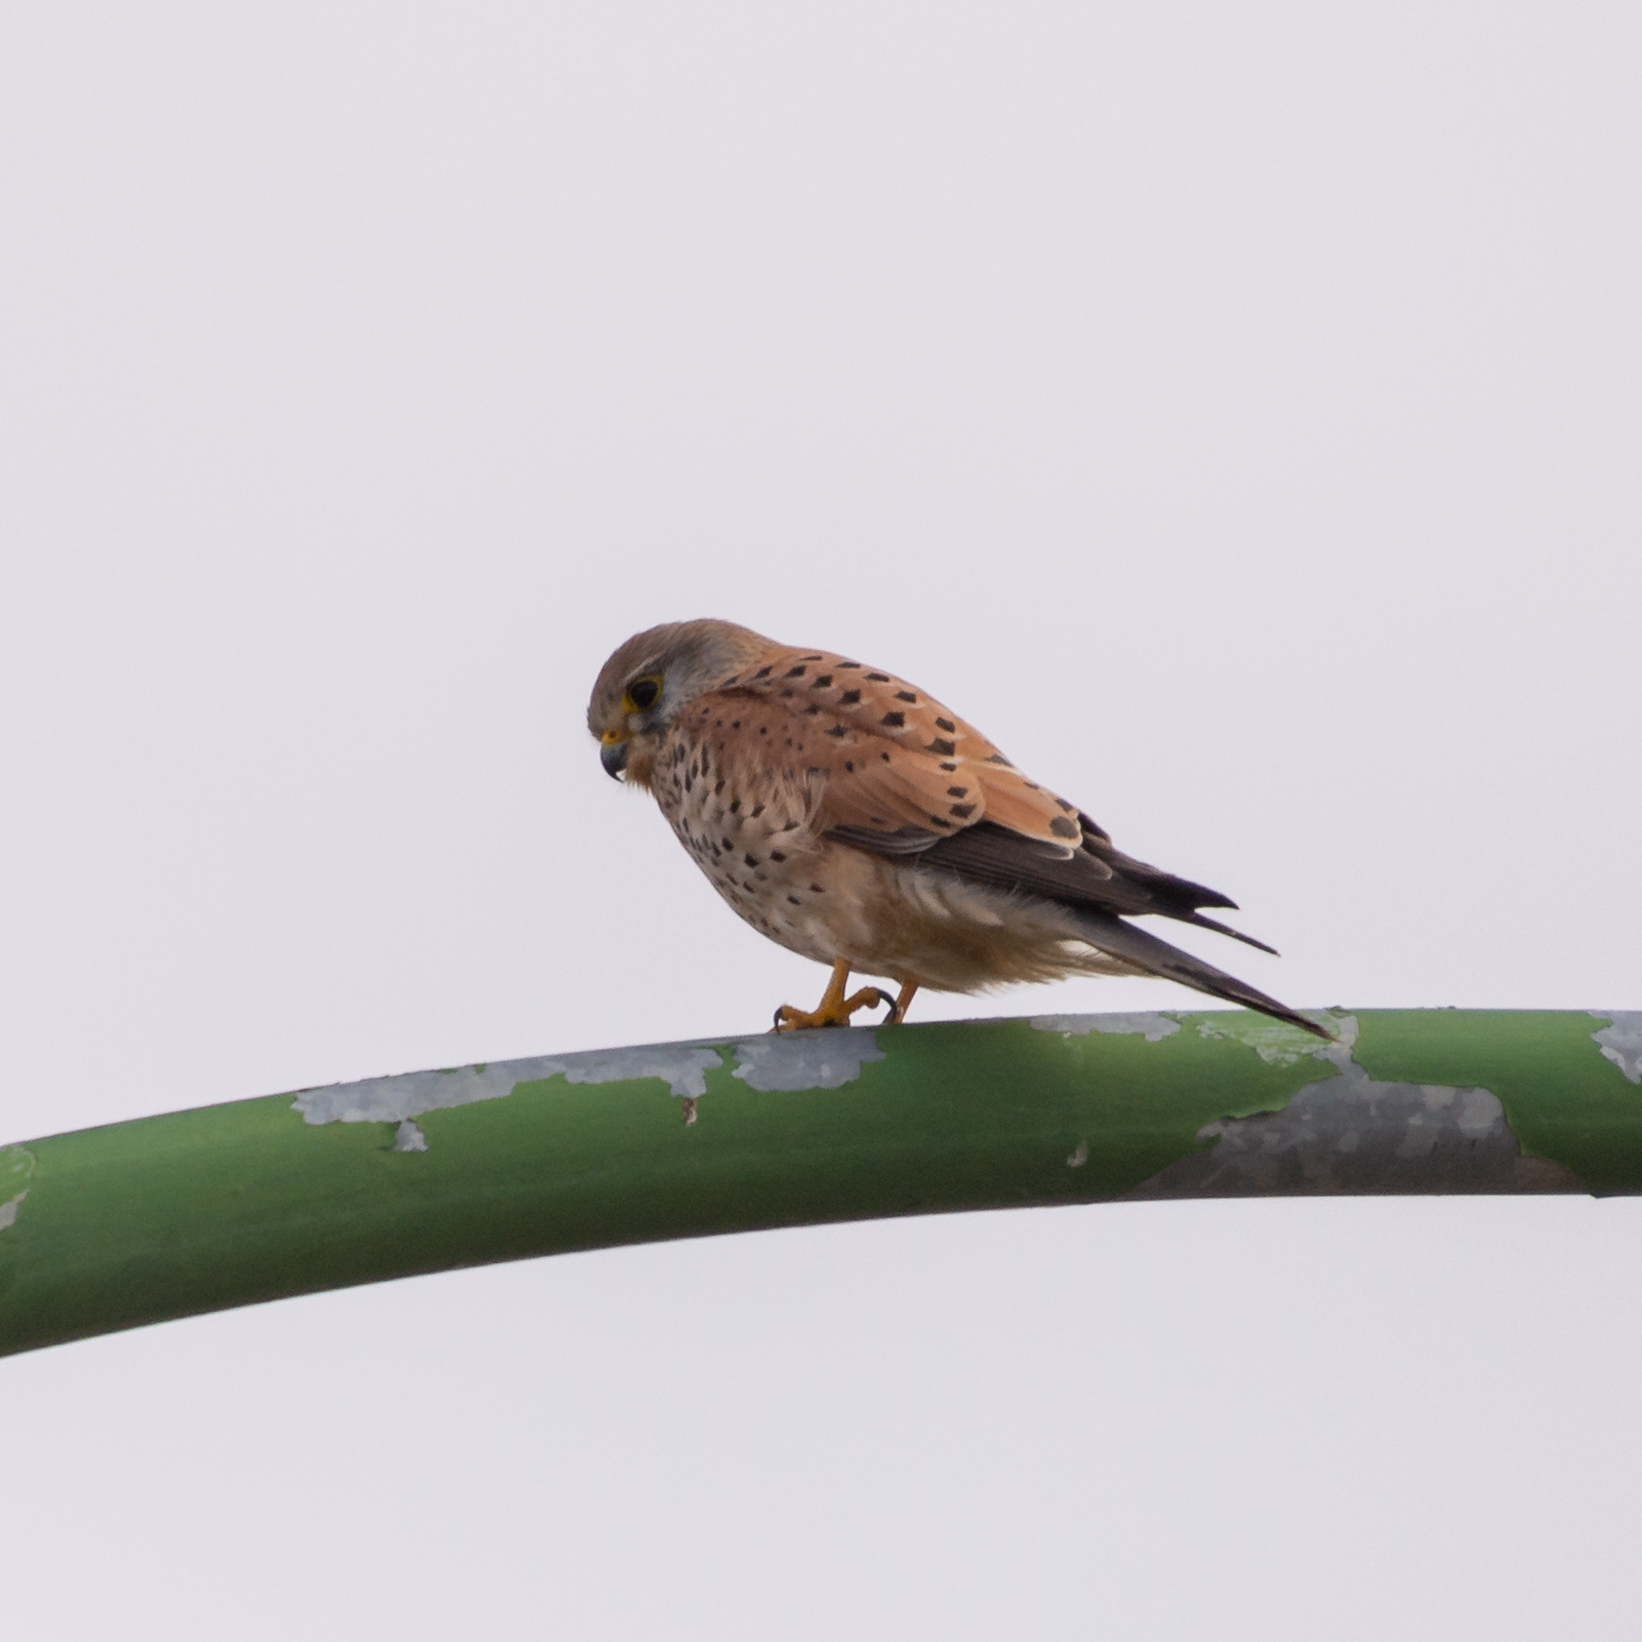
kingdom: Animalia
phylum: Chordata
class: Aves
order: Falconiformes
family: Falconidae
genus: Falco
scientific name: Falco tinnunculus
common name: Common kestrel
